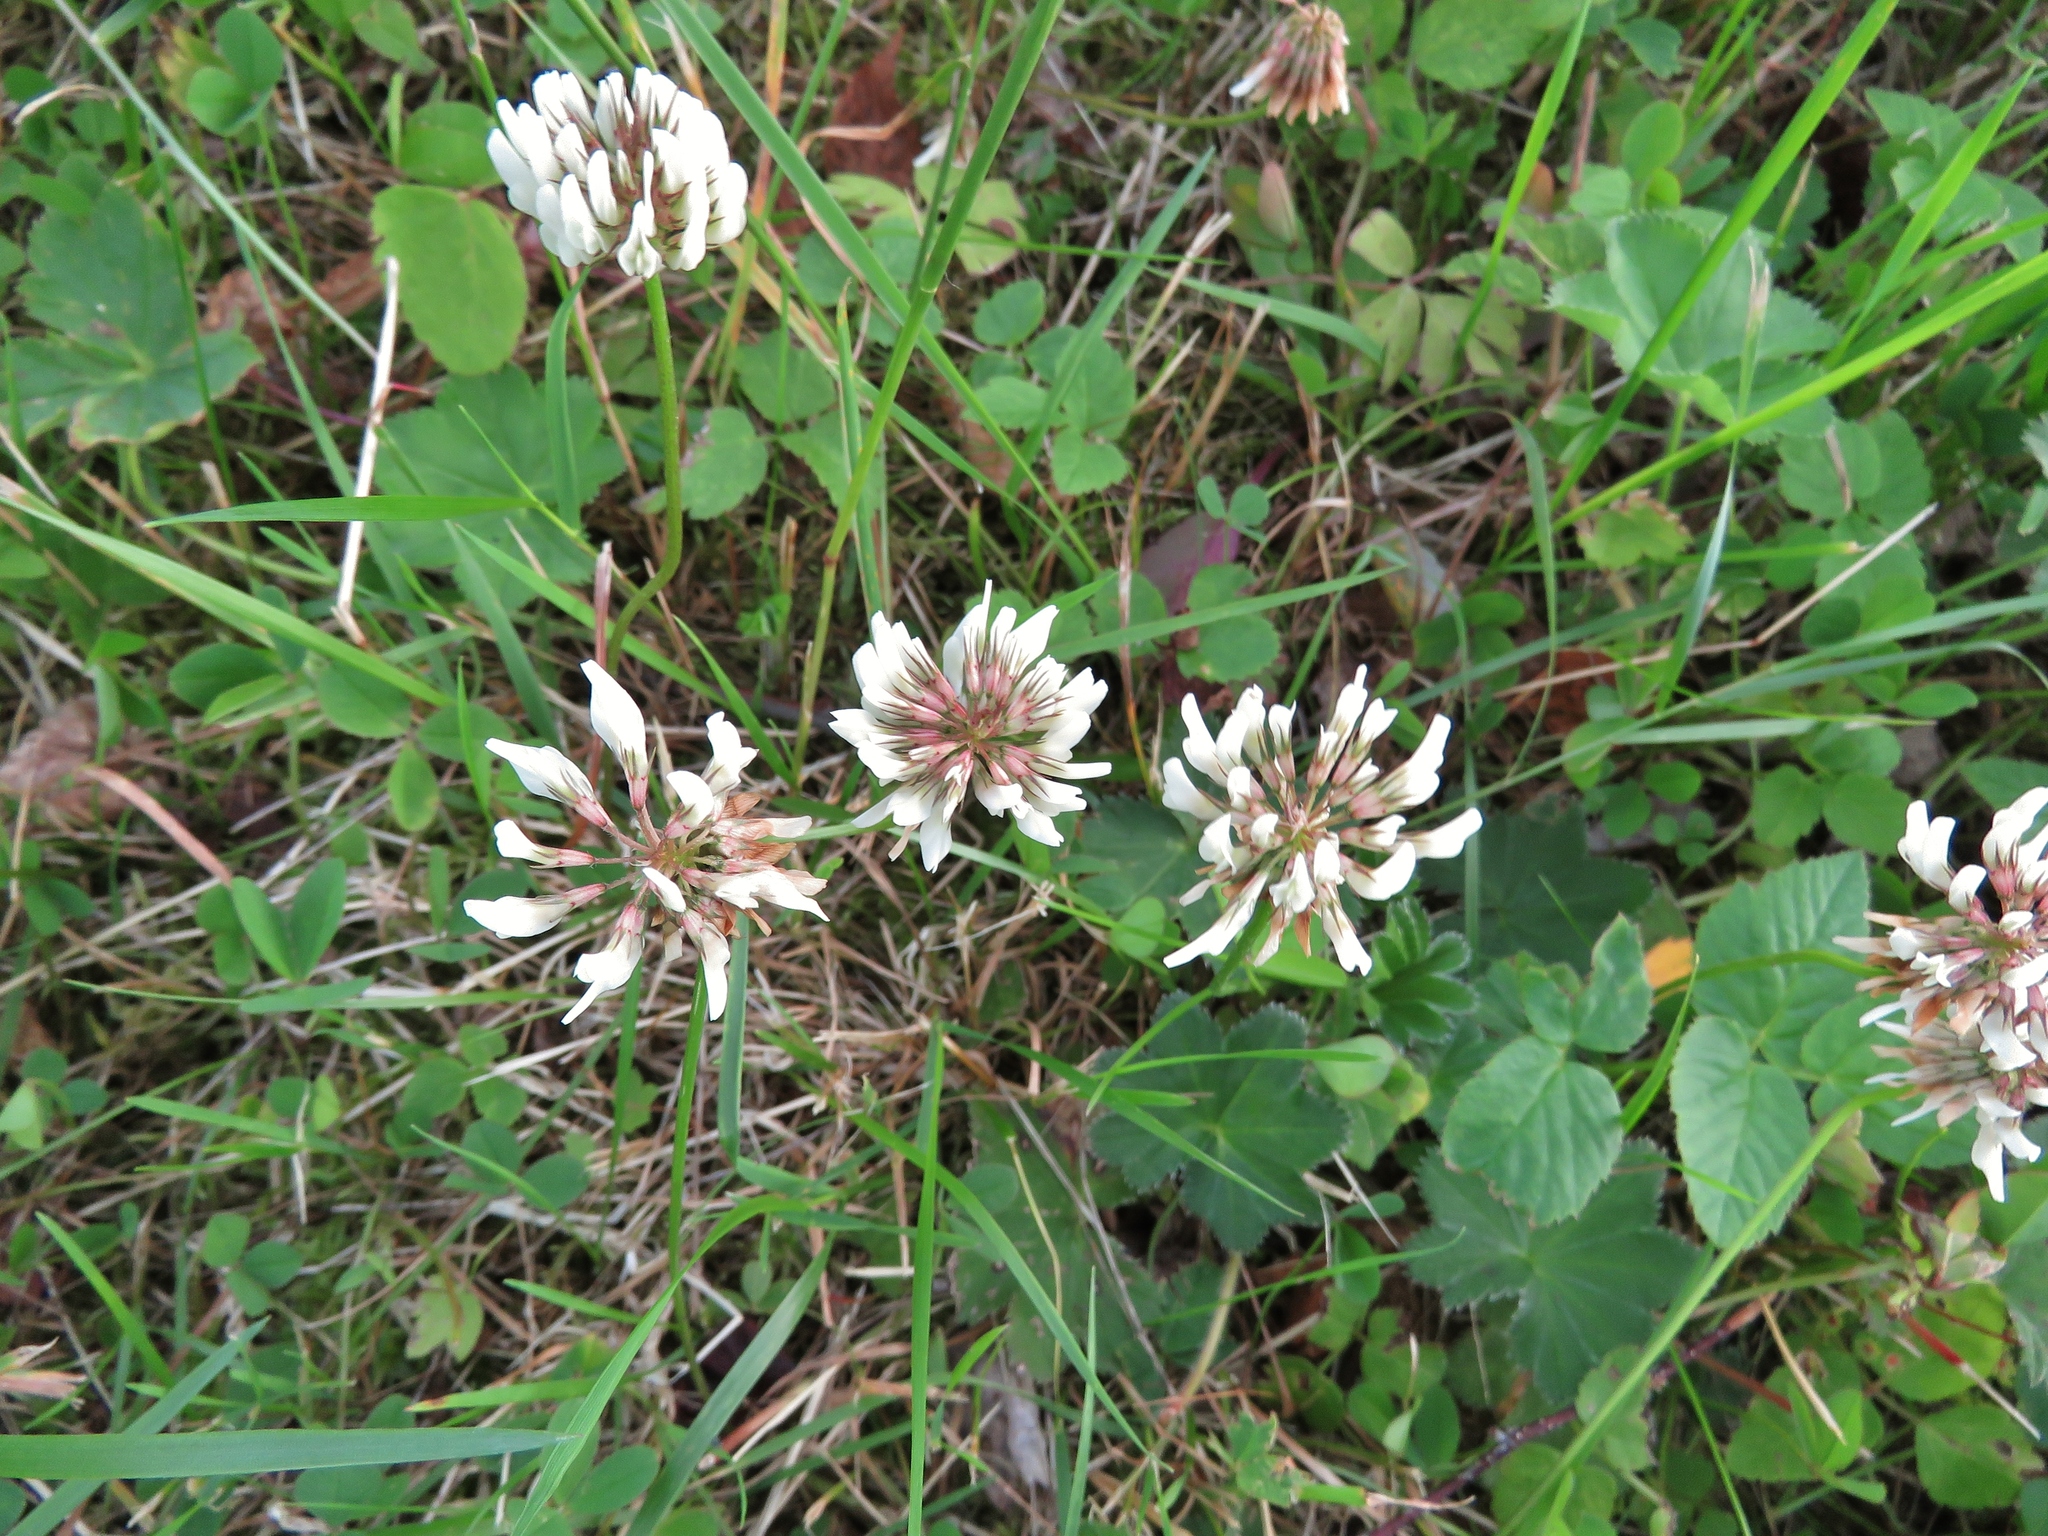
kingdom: Plantae
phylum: Tracheophyta
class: Magnoliopsida
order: Fabales
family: Fabaceae
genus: Trifolium
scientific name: Trifolium repens
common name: White clover
